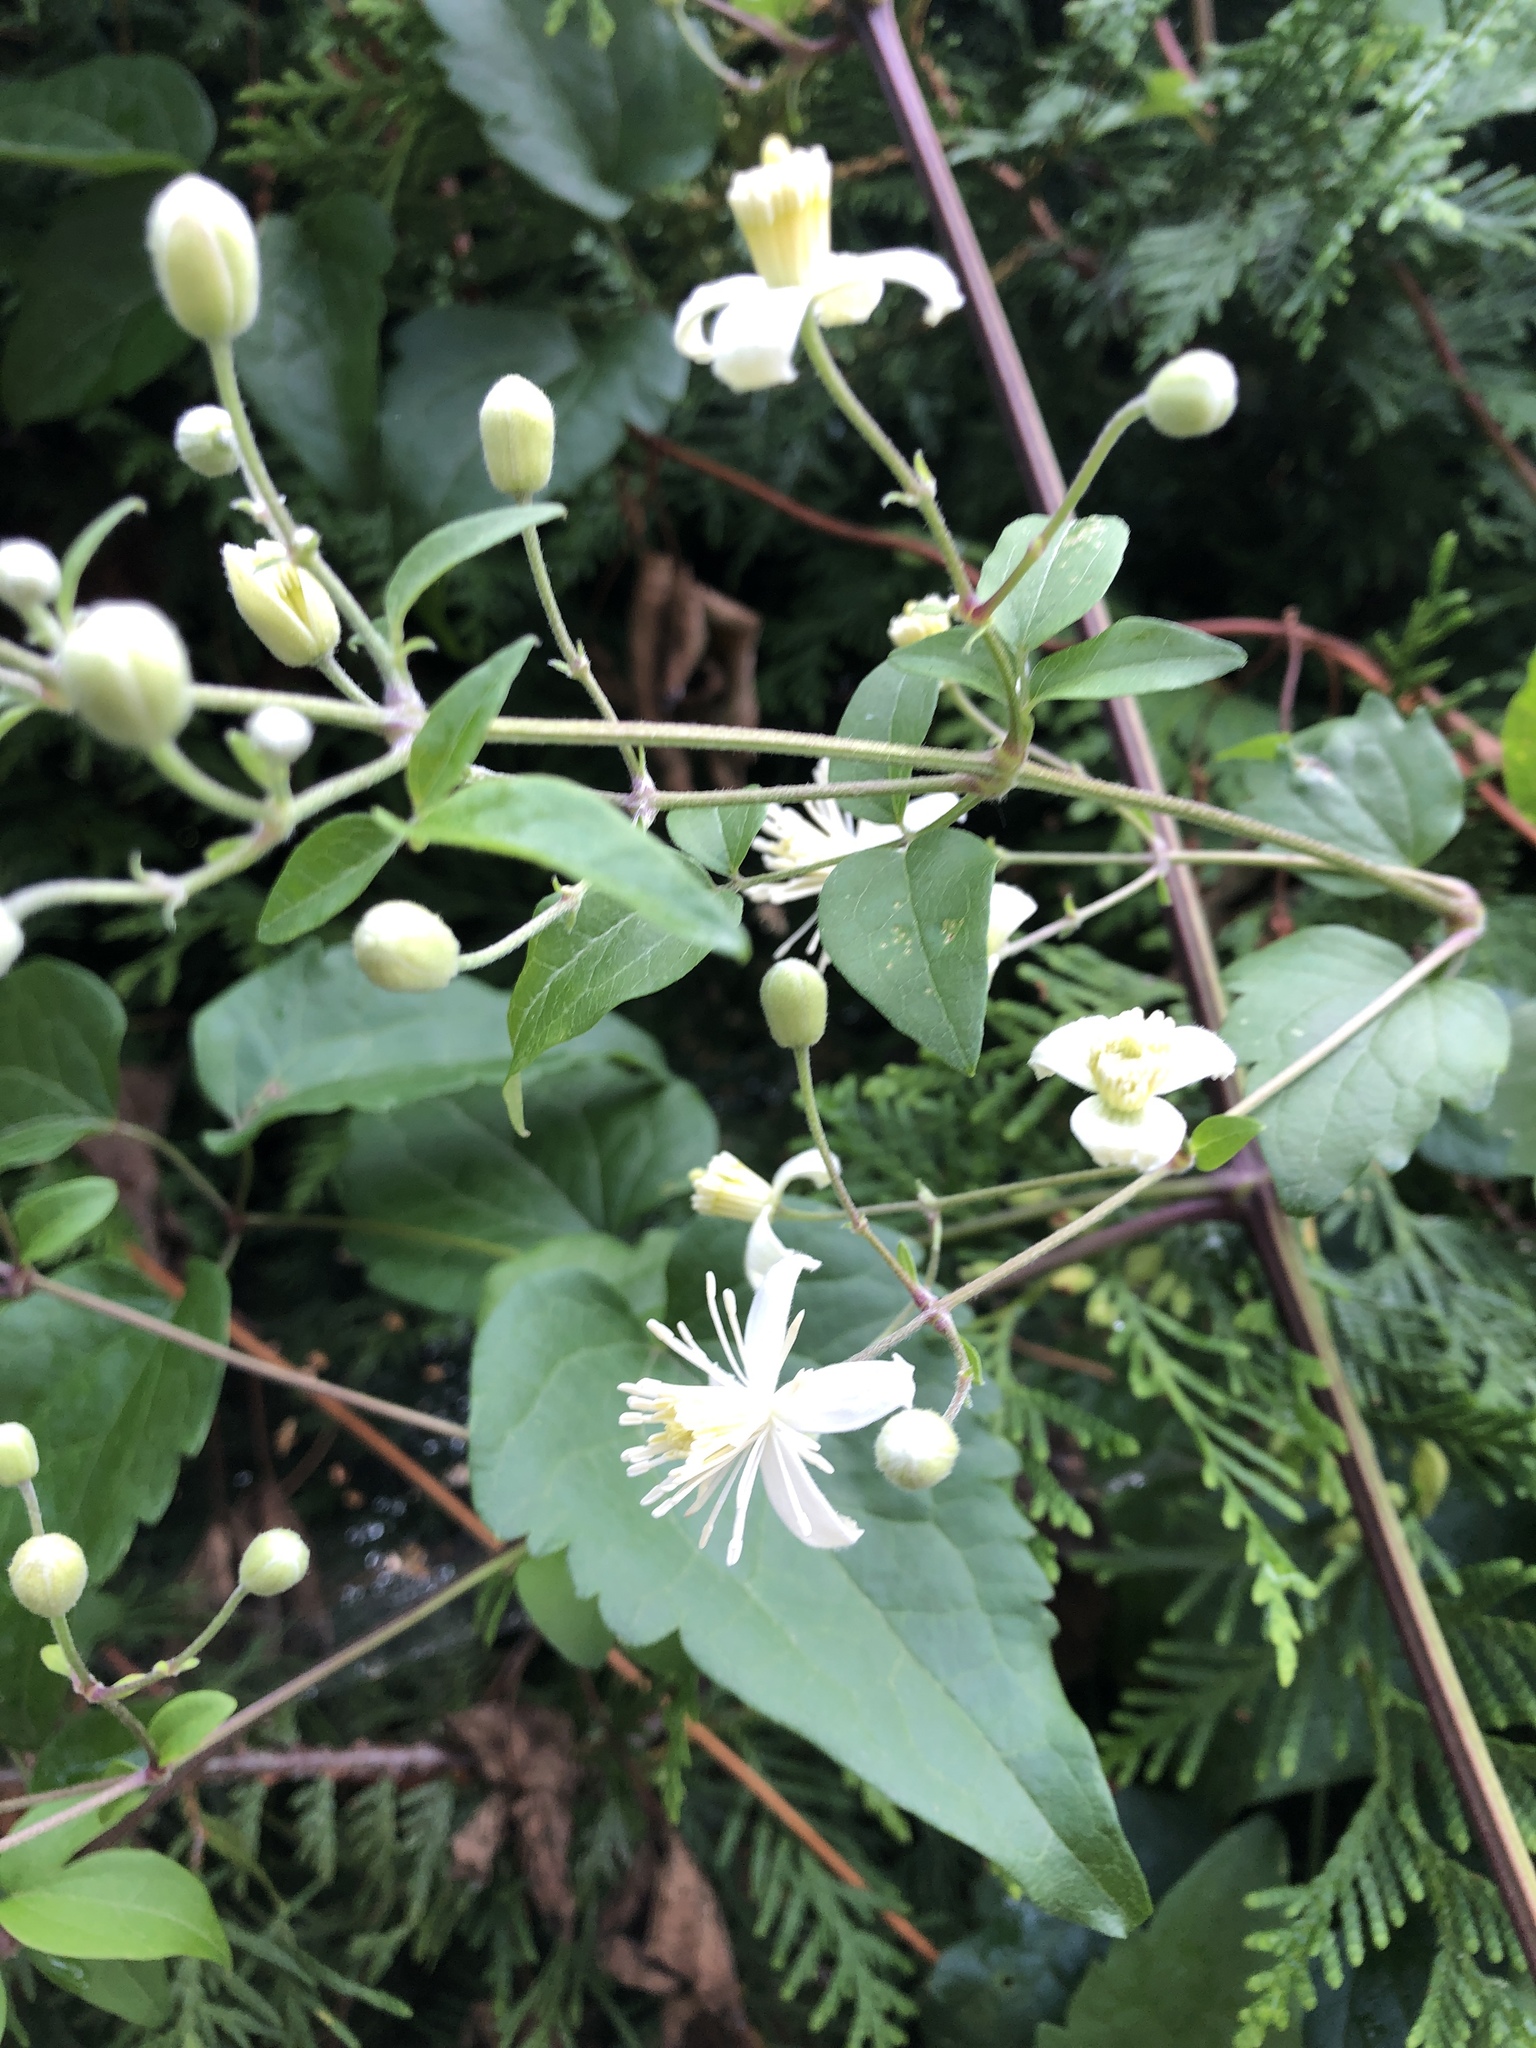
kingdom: Plantae
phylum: Tracheophyta
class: Magnoliopsida
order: Ranunculales
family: Ranunculaceae
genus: Clematis
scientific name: Clematis vitalba
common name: Evergreen clematis
